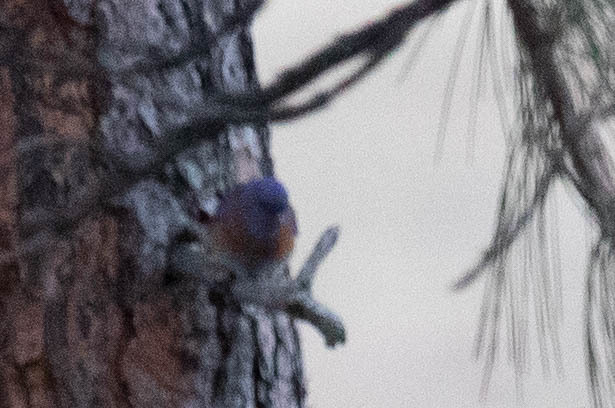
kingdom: Animalia
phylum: Chordata
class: Aves
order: Passeriformes
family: Turdidae
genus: Sialia
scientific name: Sialia mexicana
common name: Western bluebird
